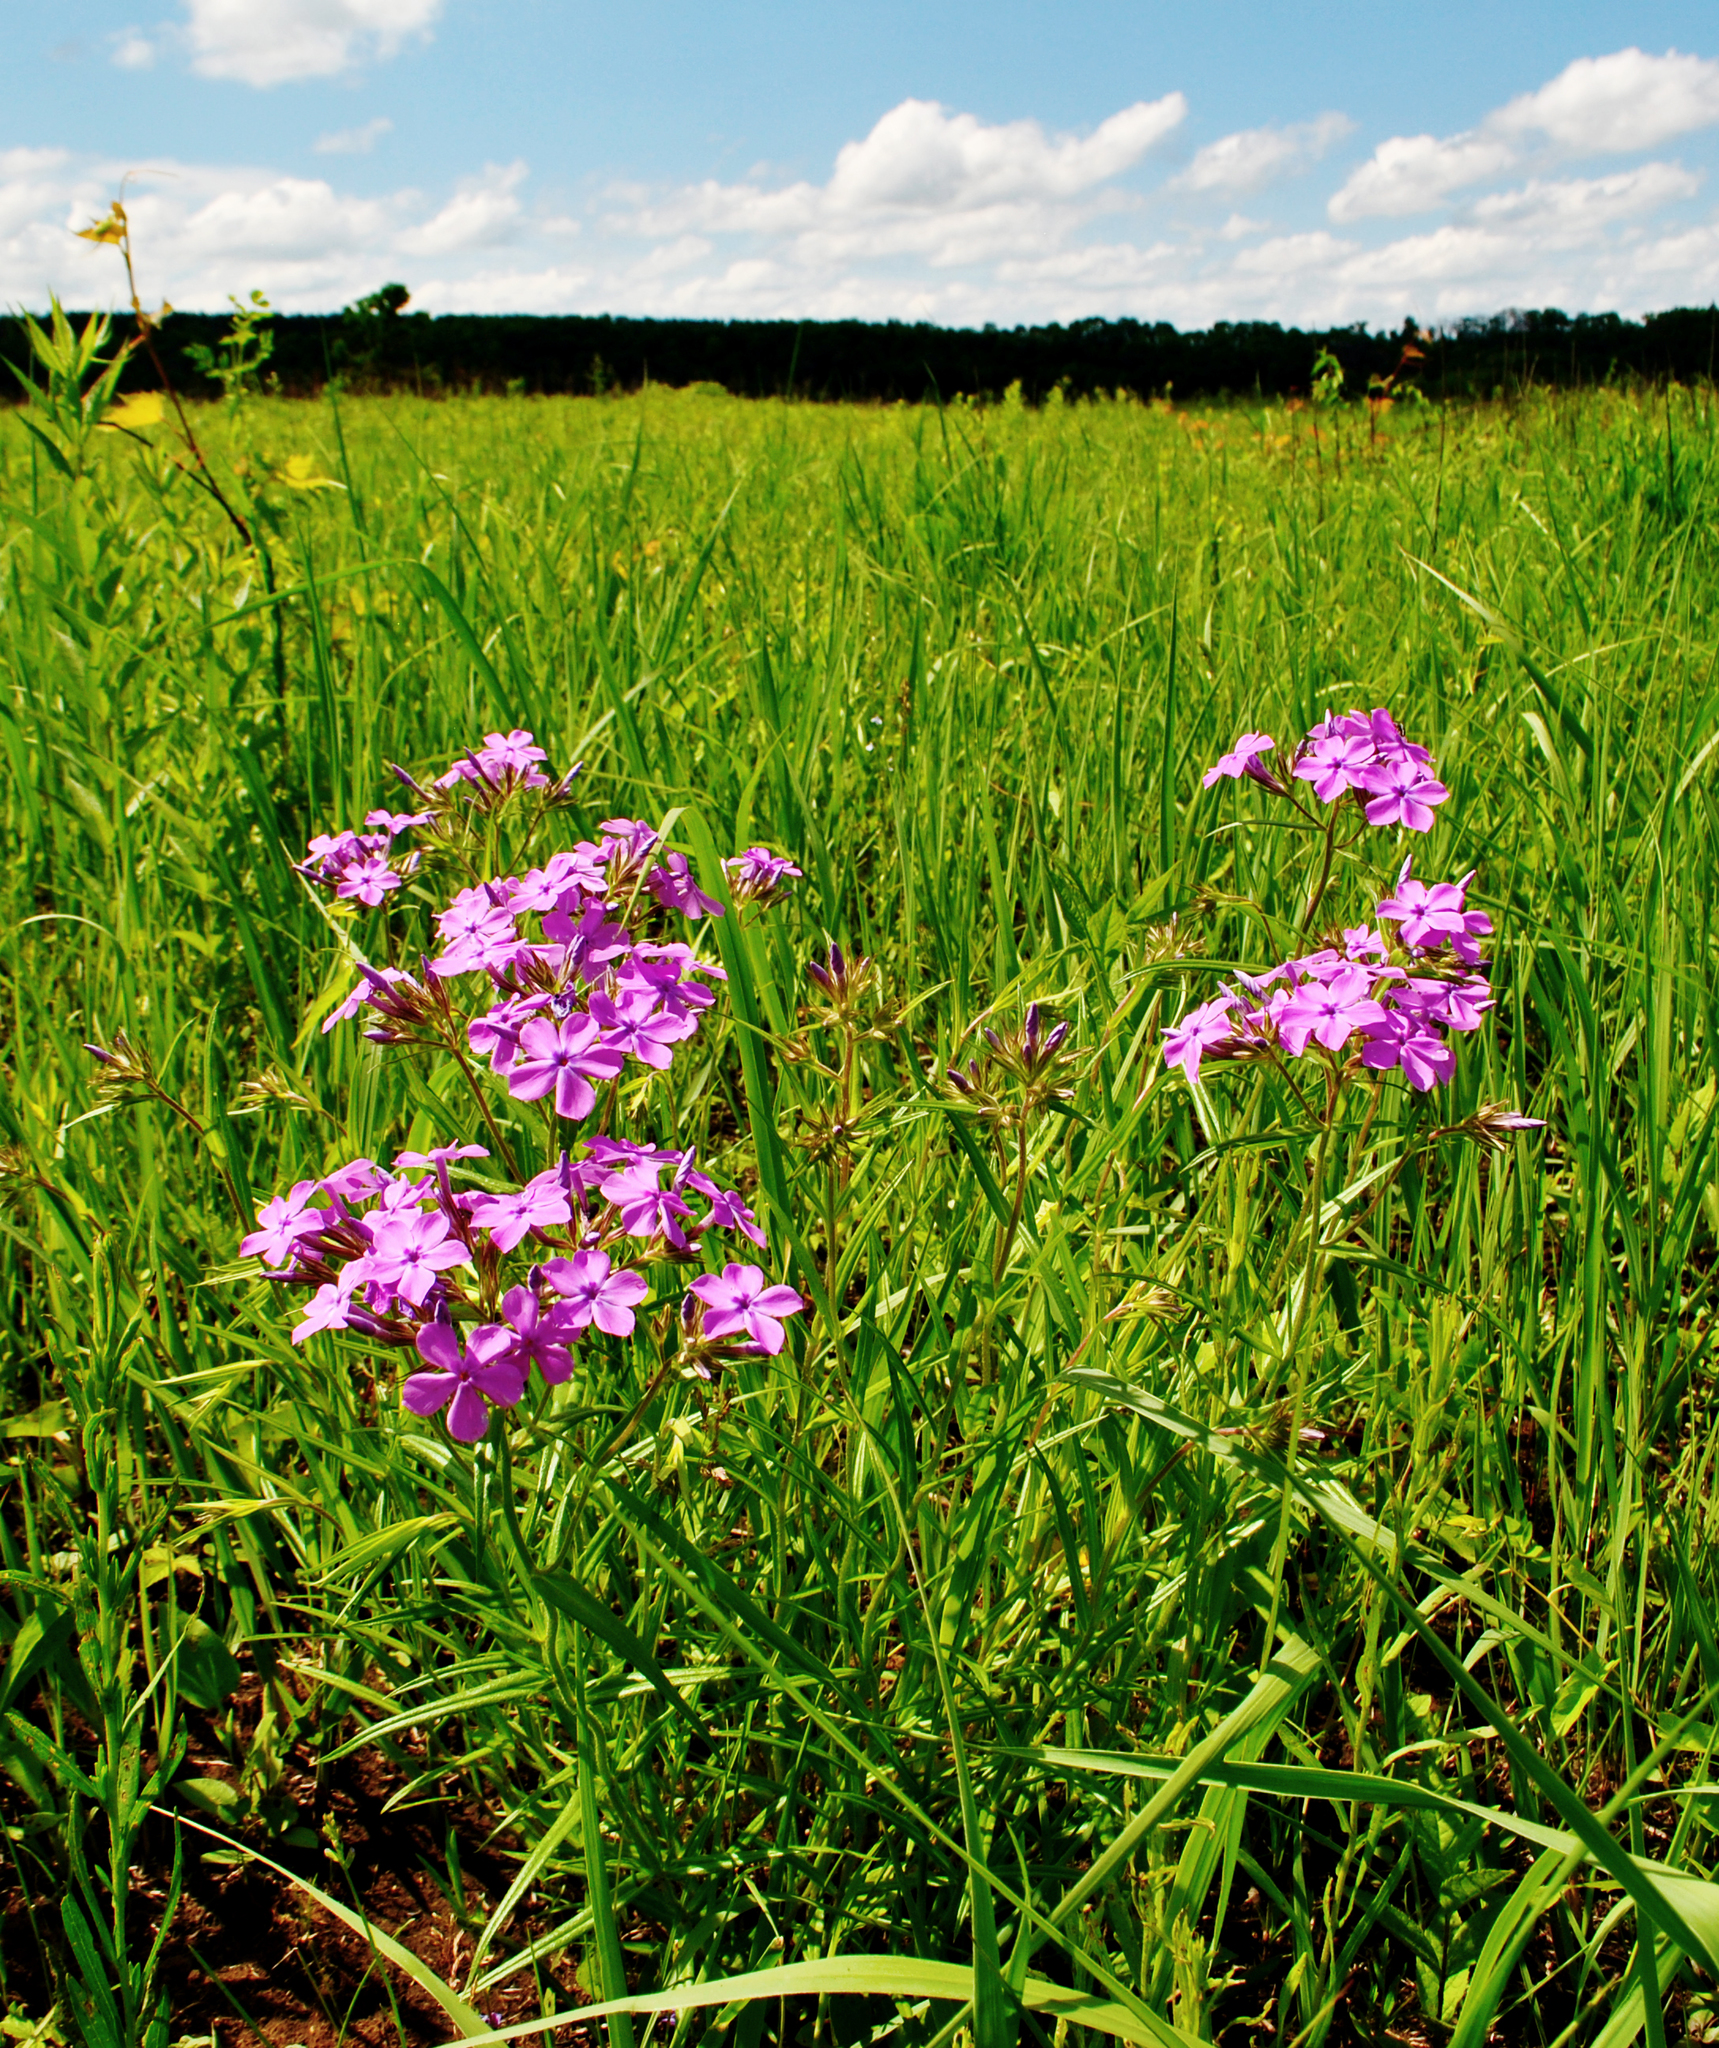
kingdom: Plantae
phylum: Tracheophyta
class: Magnoliopsida
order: Ericales
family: Polemoniaceae
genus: Phlox
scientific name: Phlox pilosa
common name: Prairie phlox
